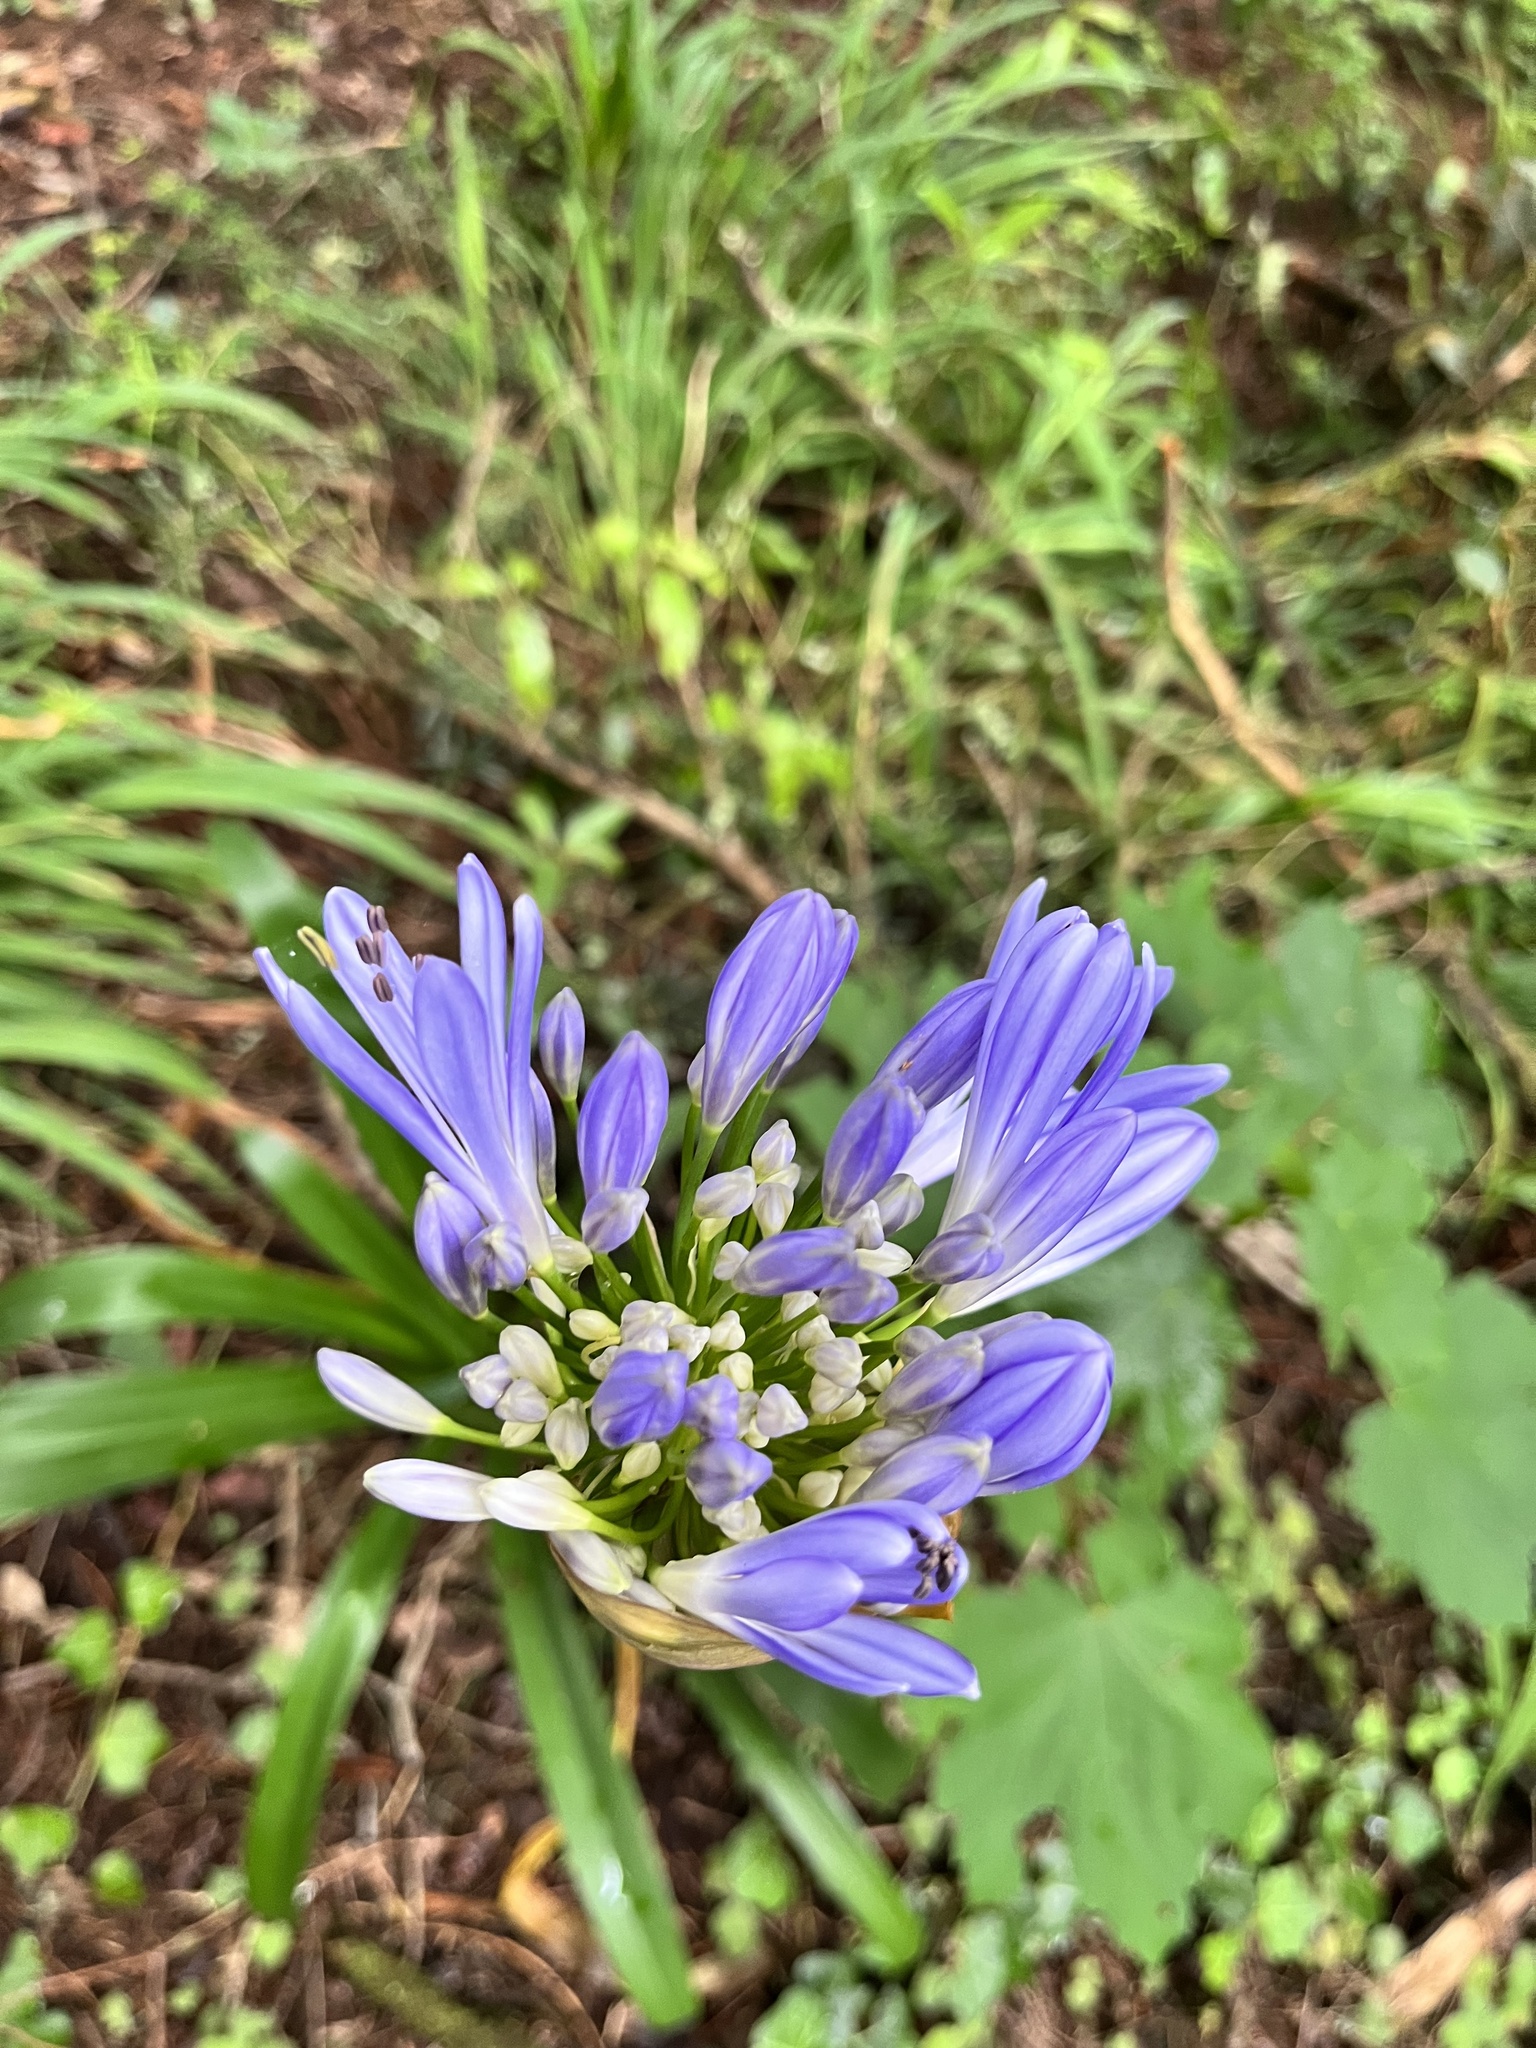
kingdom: Plantae
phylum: Tracheophyta
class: Liliopsida
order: Asparagales
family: Amaryllidaceae
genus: Agapanthus
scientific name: Agapanthus praecox
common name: African-lily
